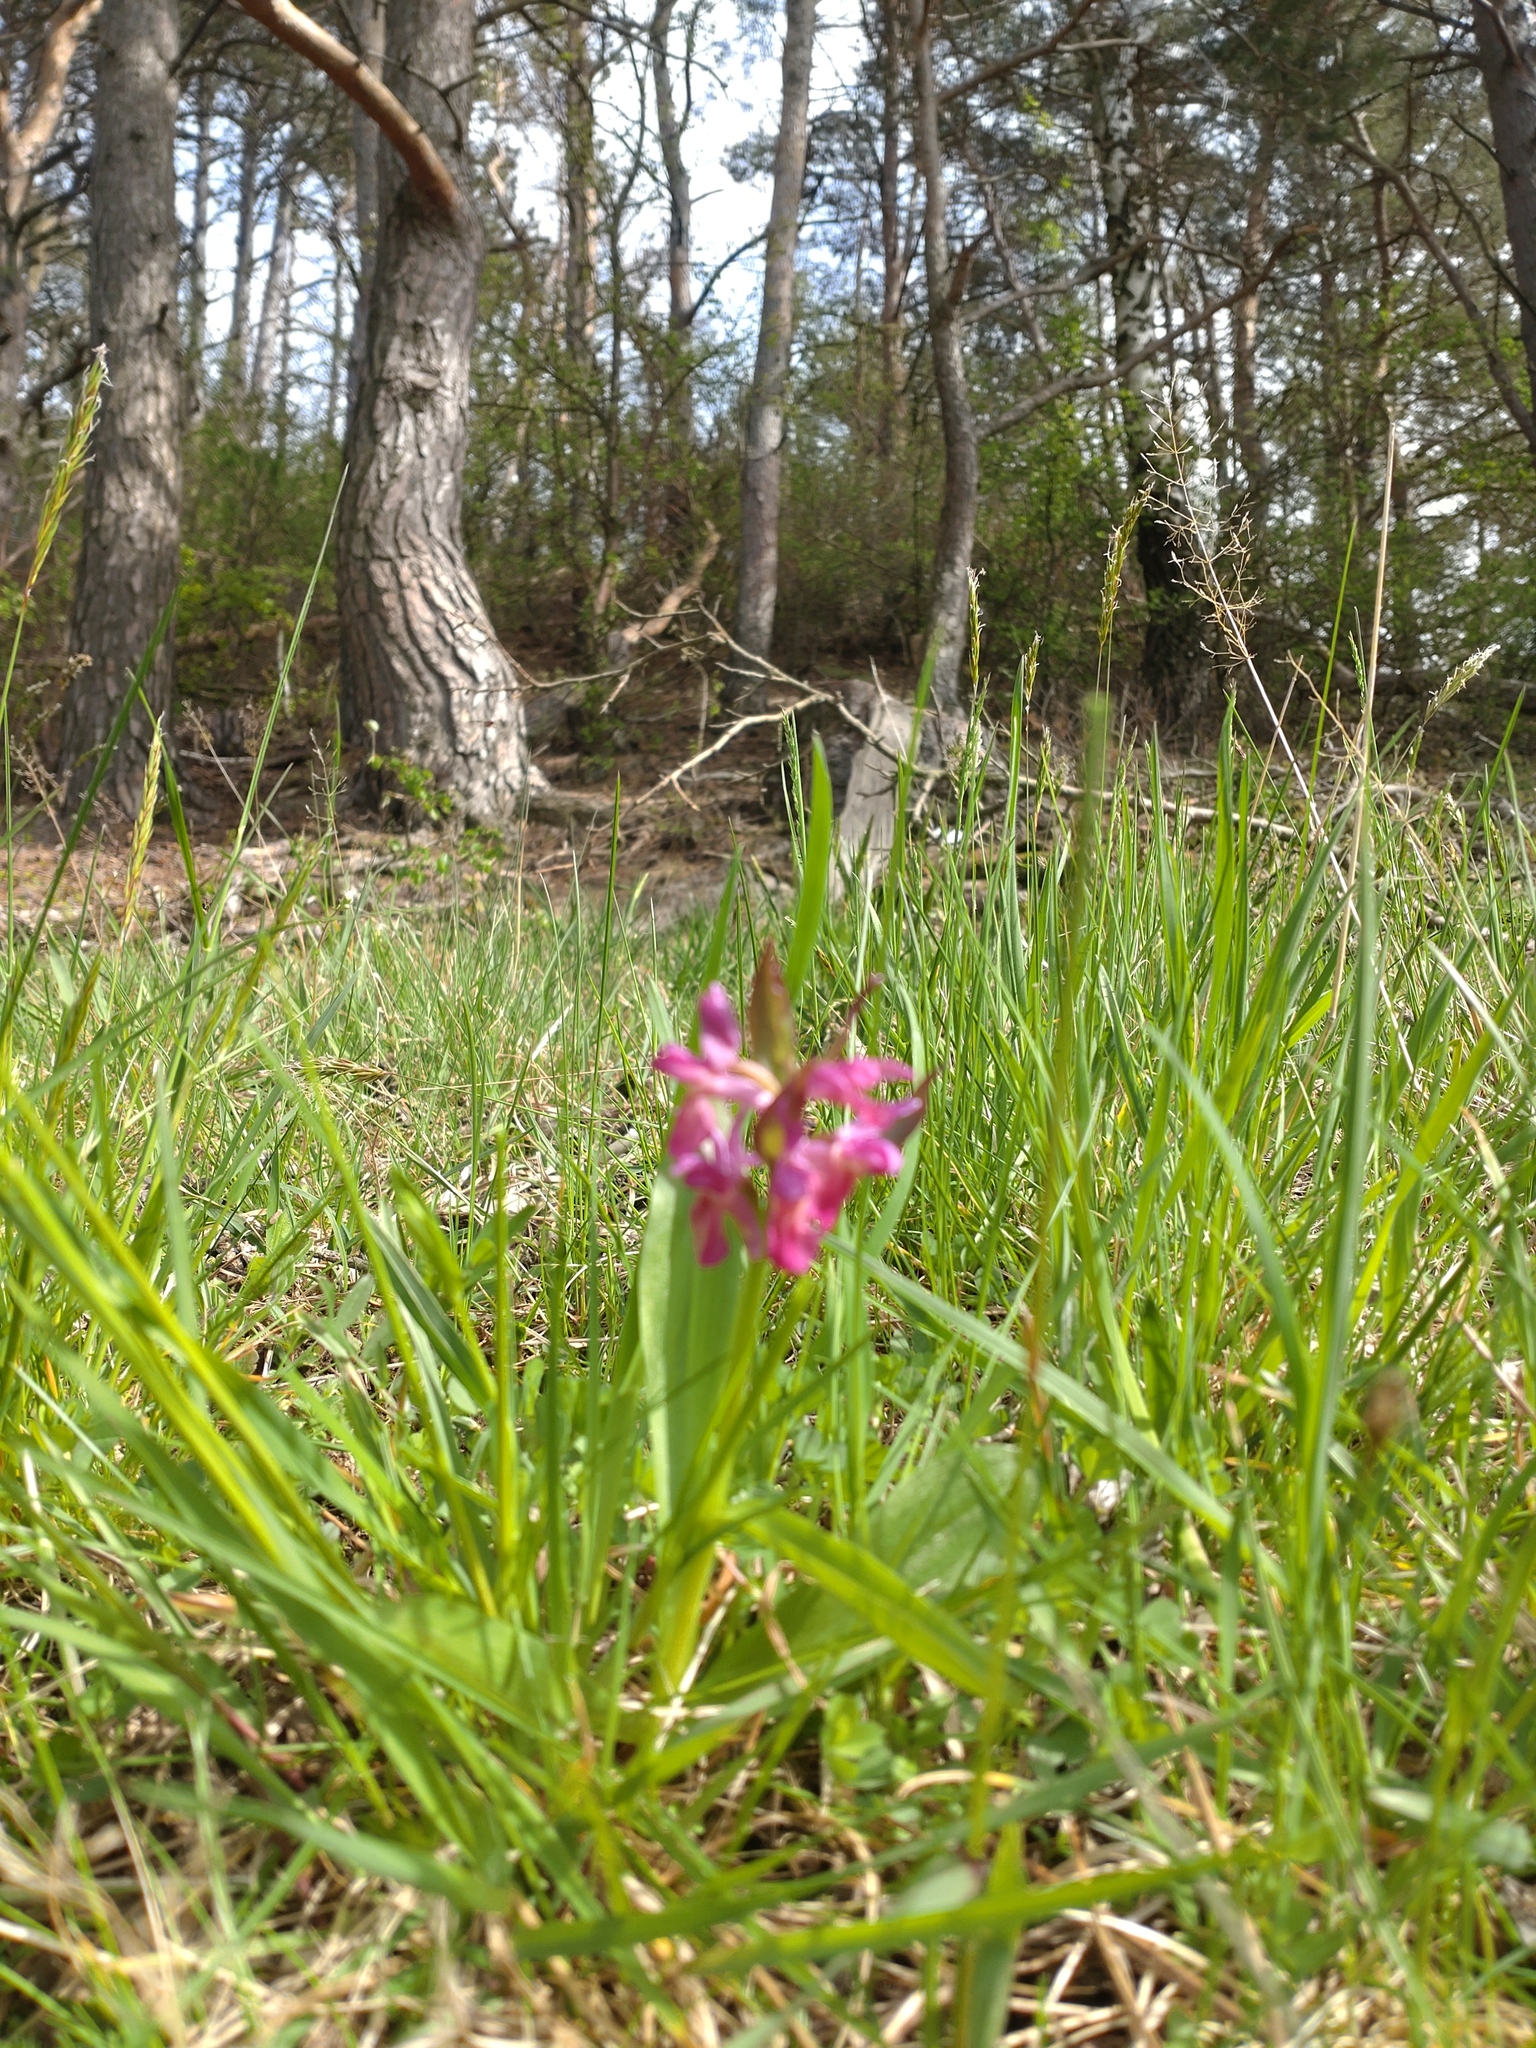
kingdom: Plantae
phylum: Tracheophyta
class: Liliopsida
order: Asparagales
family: Orchidaceae
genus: Dactylorhiza
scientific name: Dactylorhiza sambucina
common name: Elder-flowered orchid
